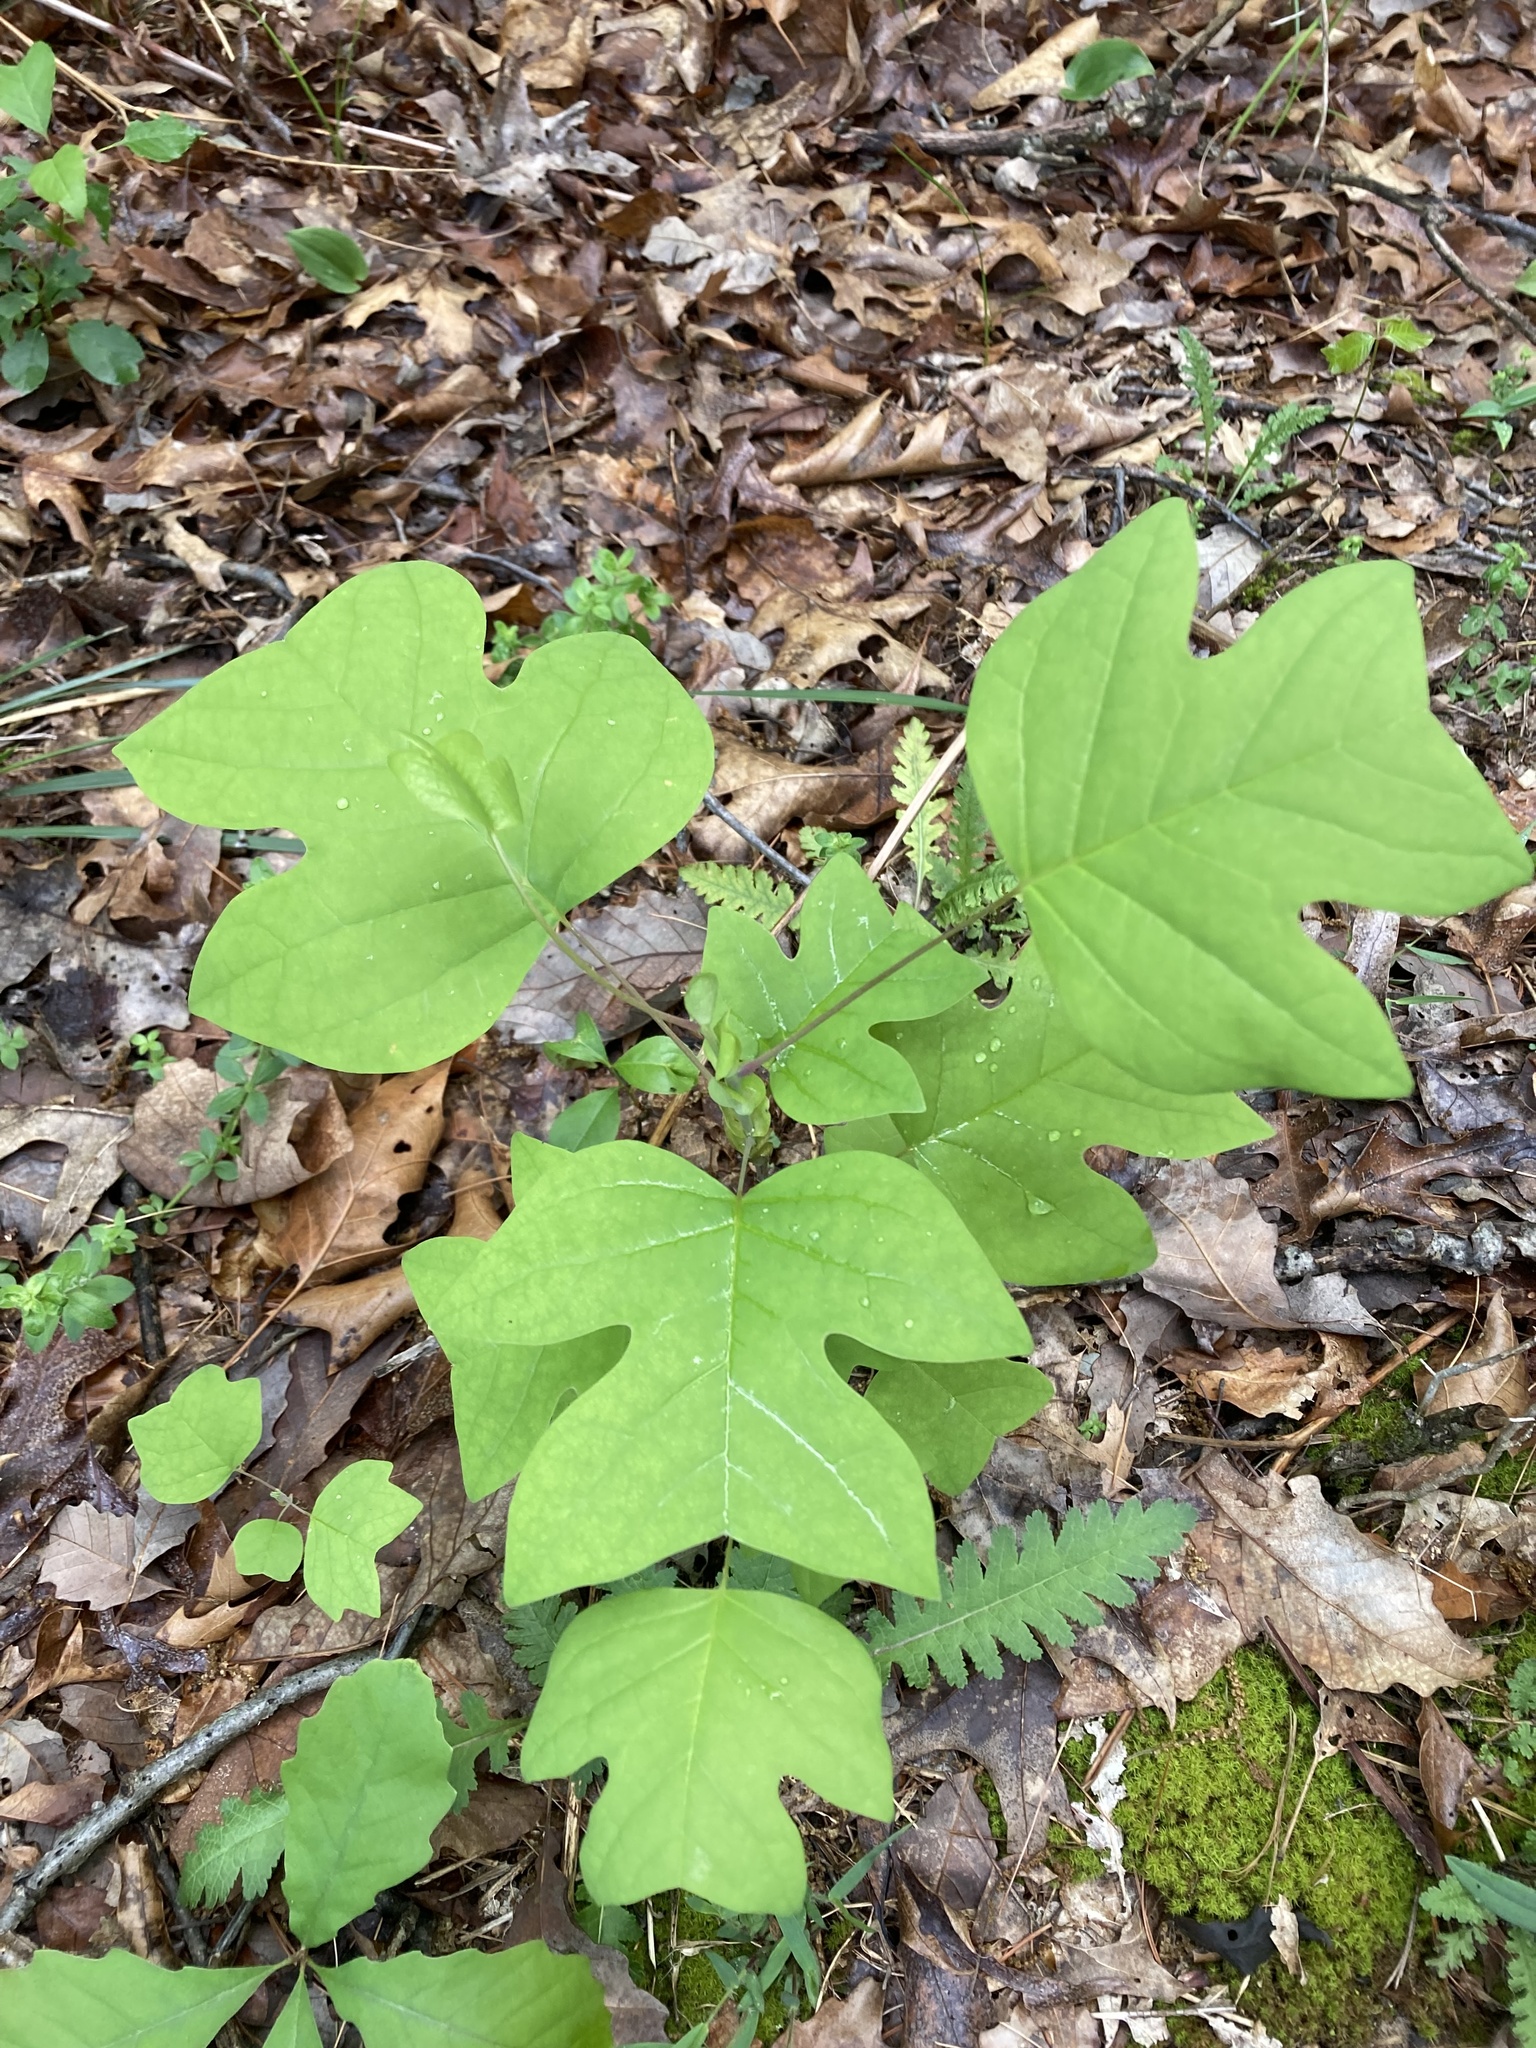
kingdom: Plantae
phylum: Tracheophyta
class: Magnoliopsida
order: Magnoliales
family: Magnoliaceae
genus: Liriodendron
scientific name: Liriodendron tulipifera
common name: Tulip tree
